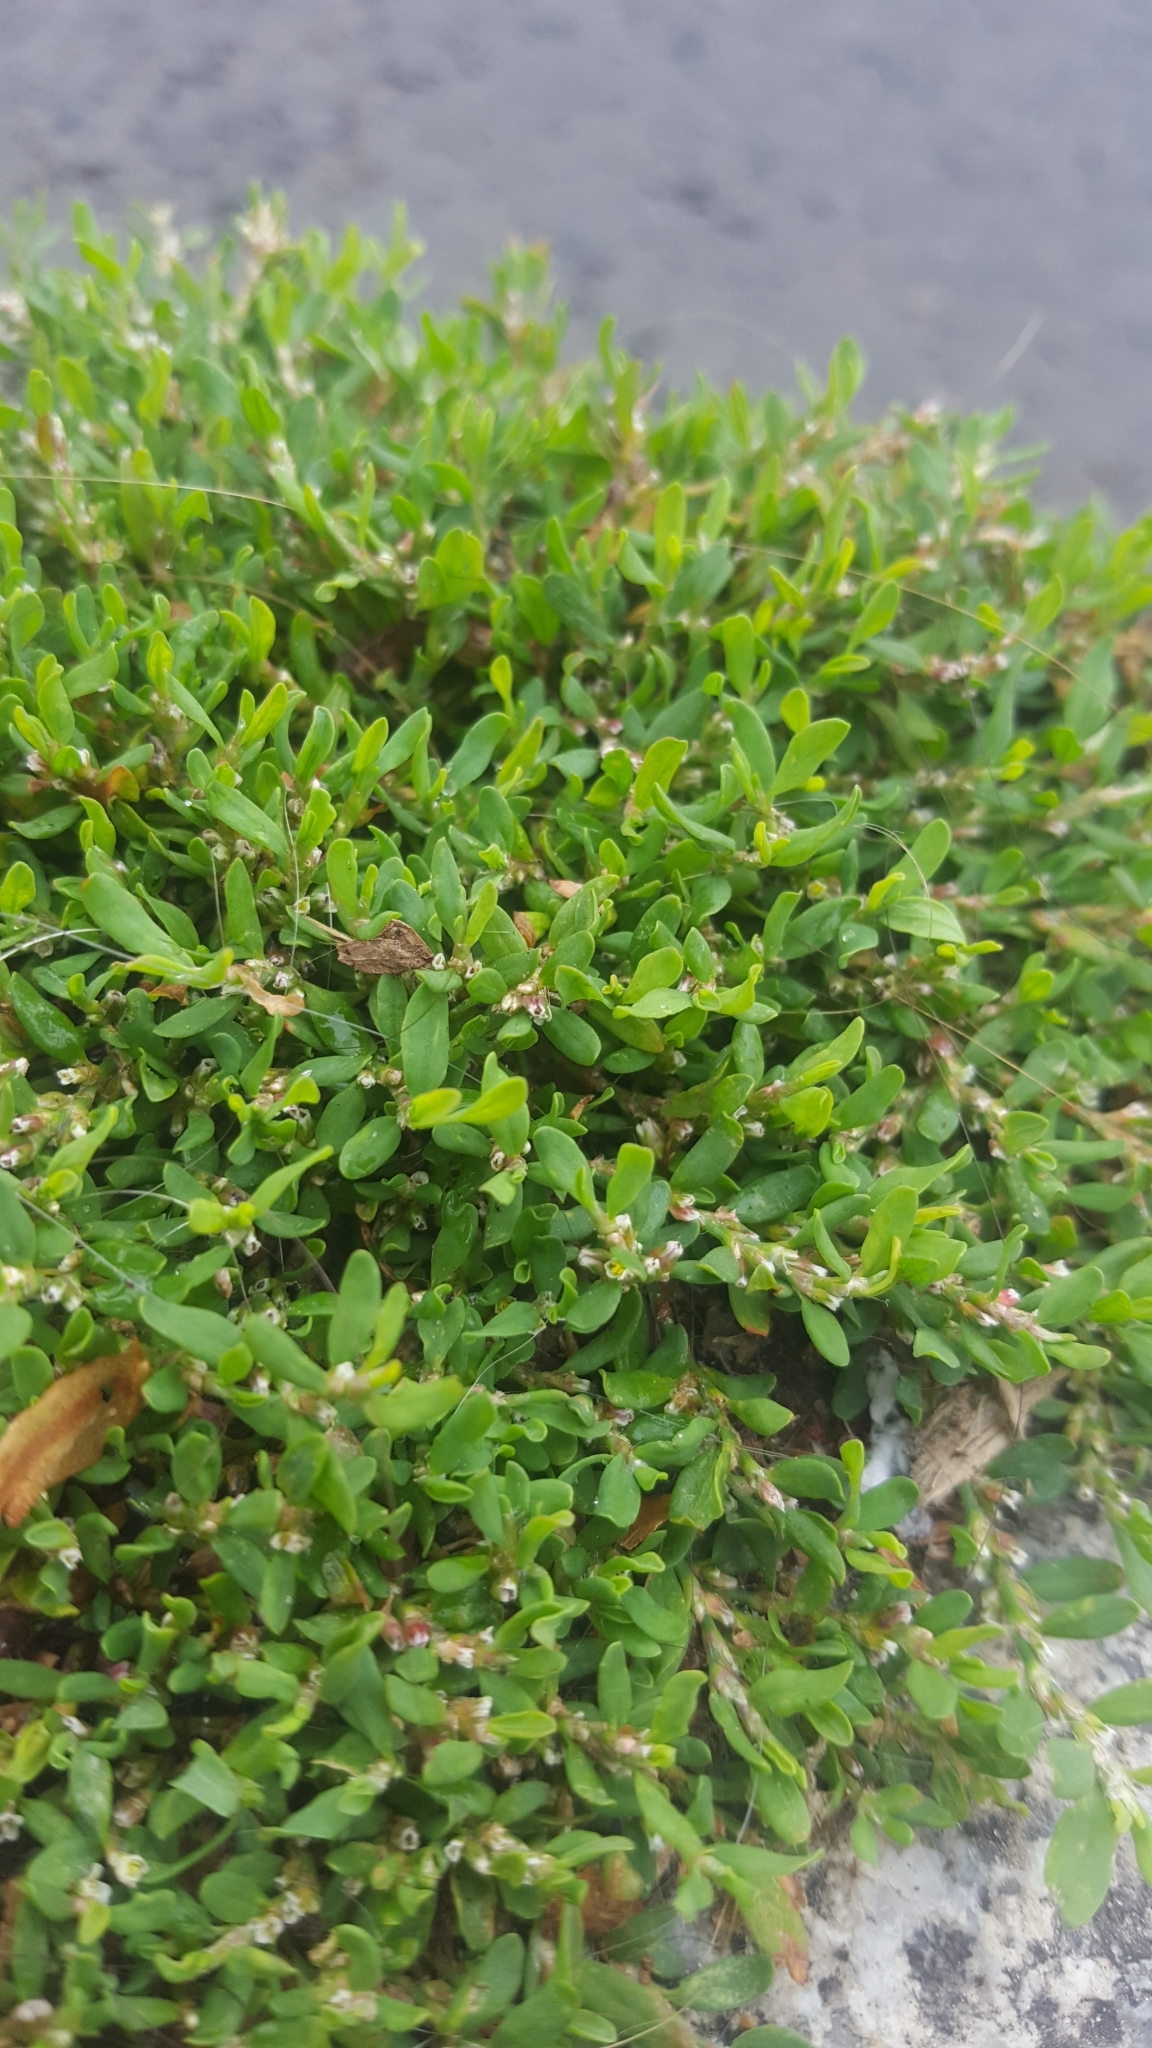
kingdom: Plantae
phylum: Tracheophyta
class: Magnoliopsida
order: Caryophyllales
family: Polygonaceae
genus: Polygonum
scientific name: Polygonum aviculare
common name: Prostrate knotweed
